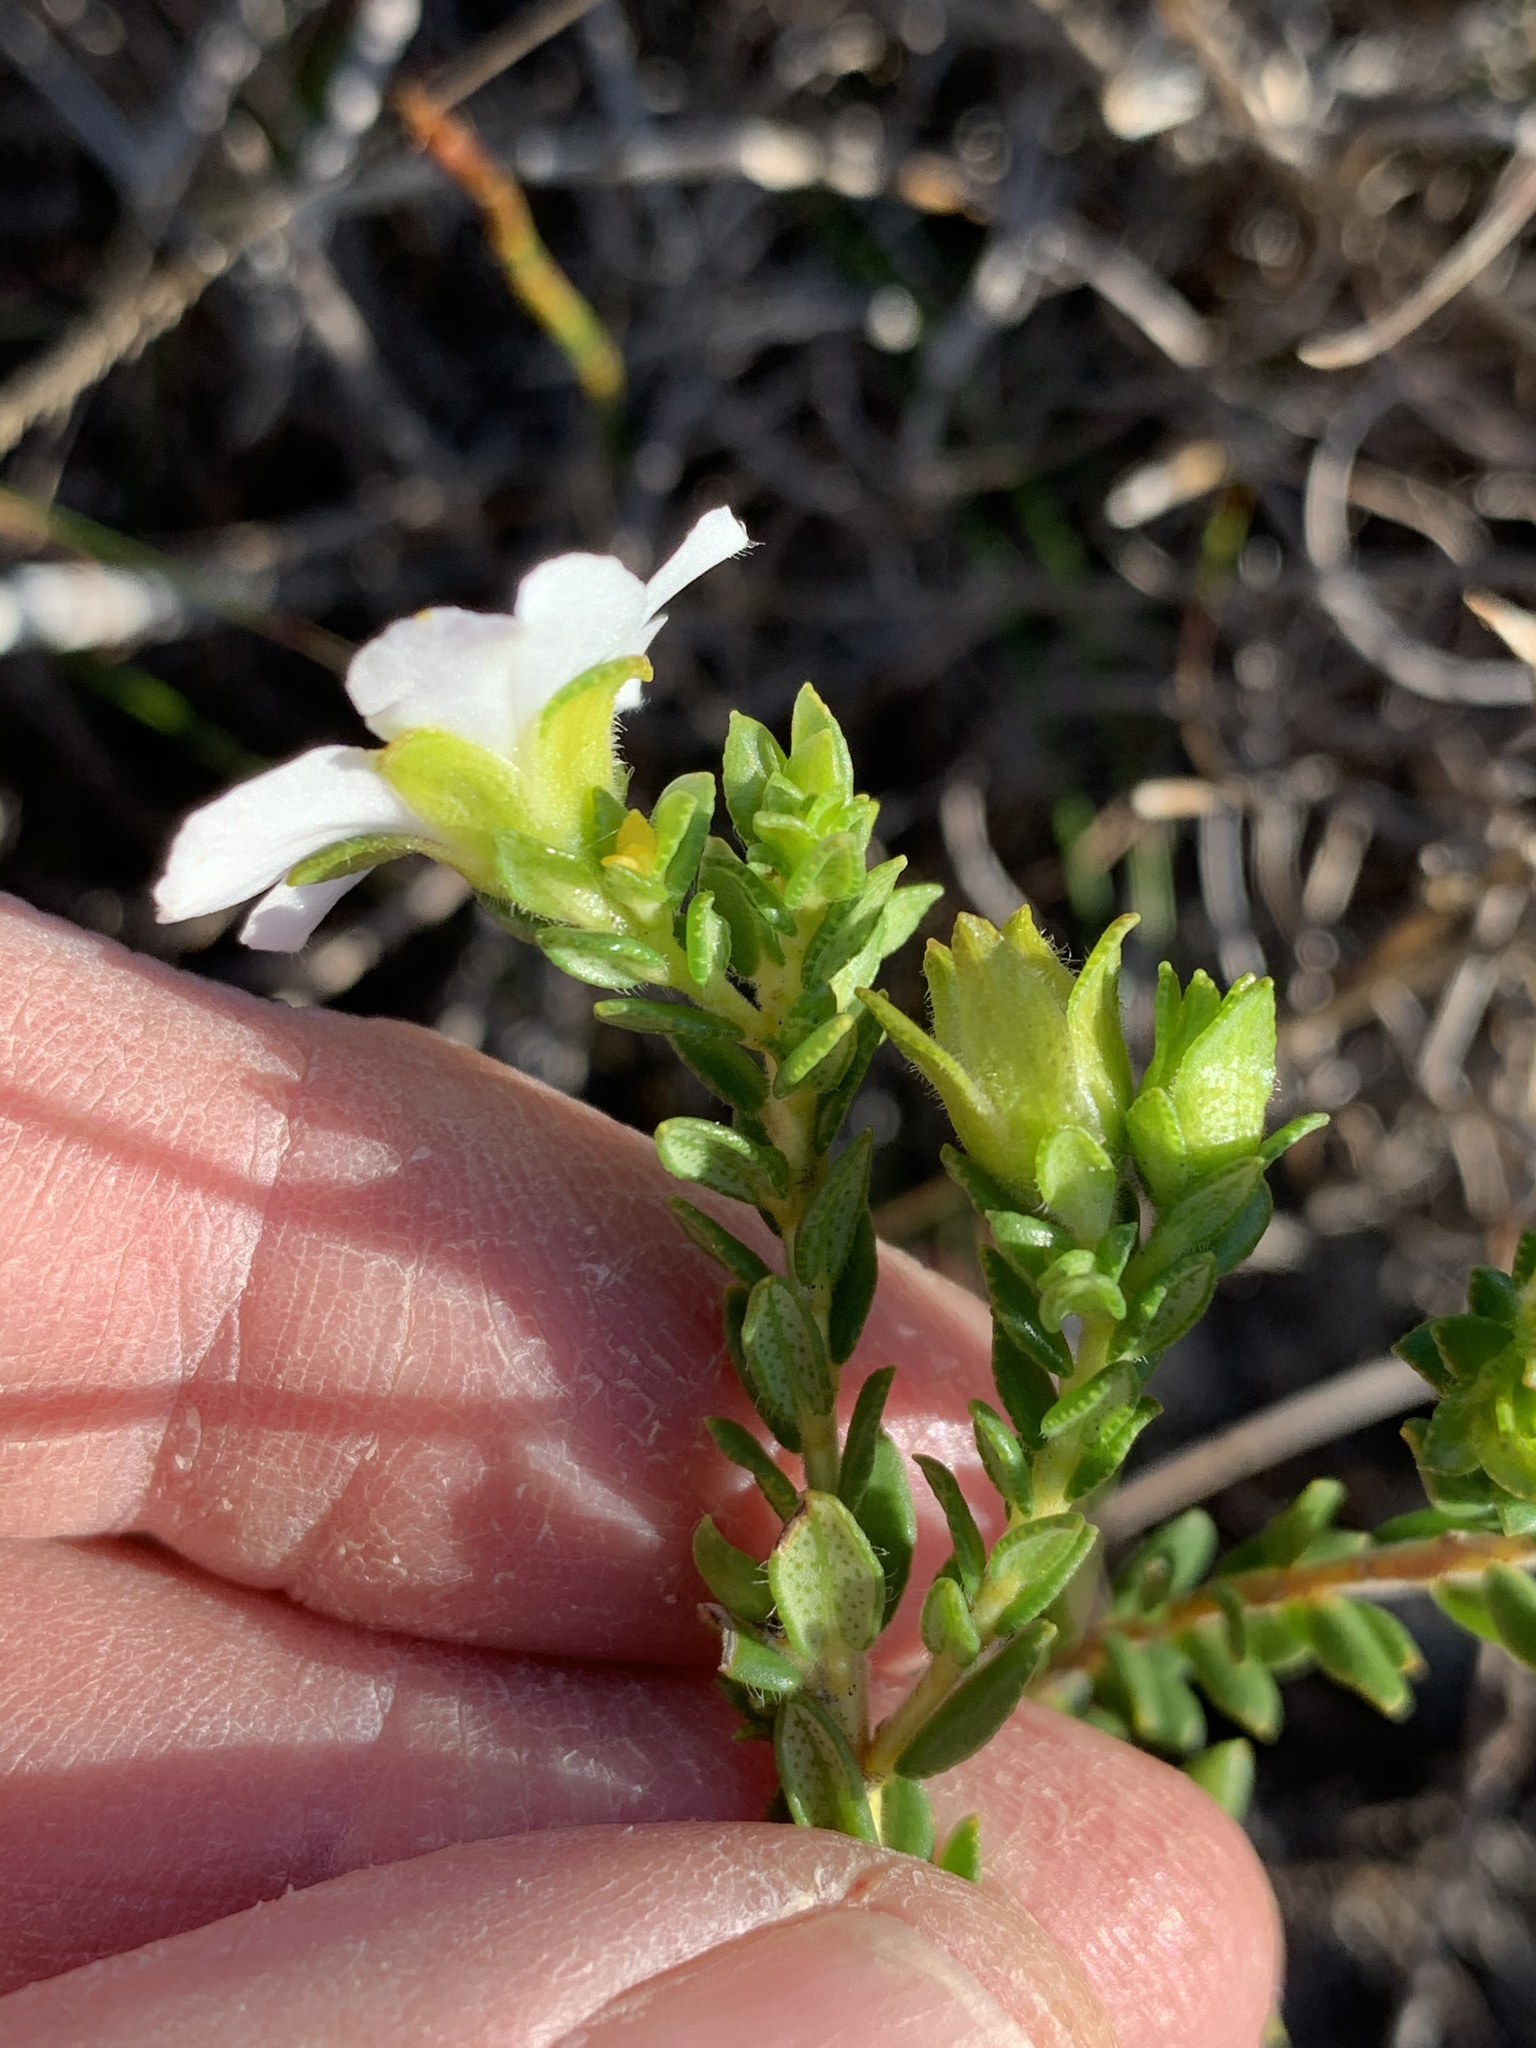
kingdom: Plantae
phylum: Tracheophyta
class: Magnoliopsida
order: Sapindales
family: Rutaceae
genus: Adenandra
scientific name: Adenandra uniflora
